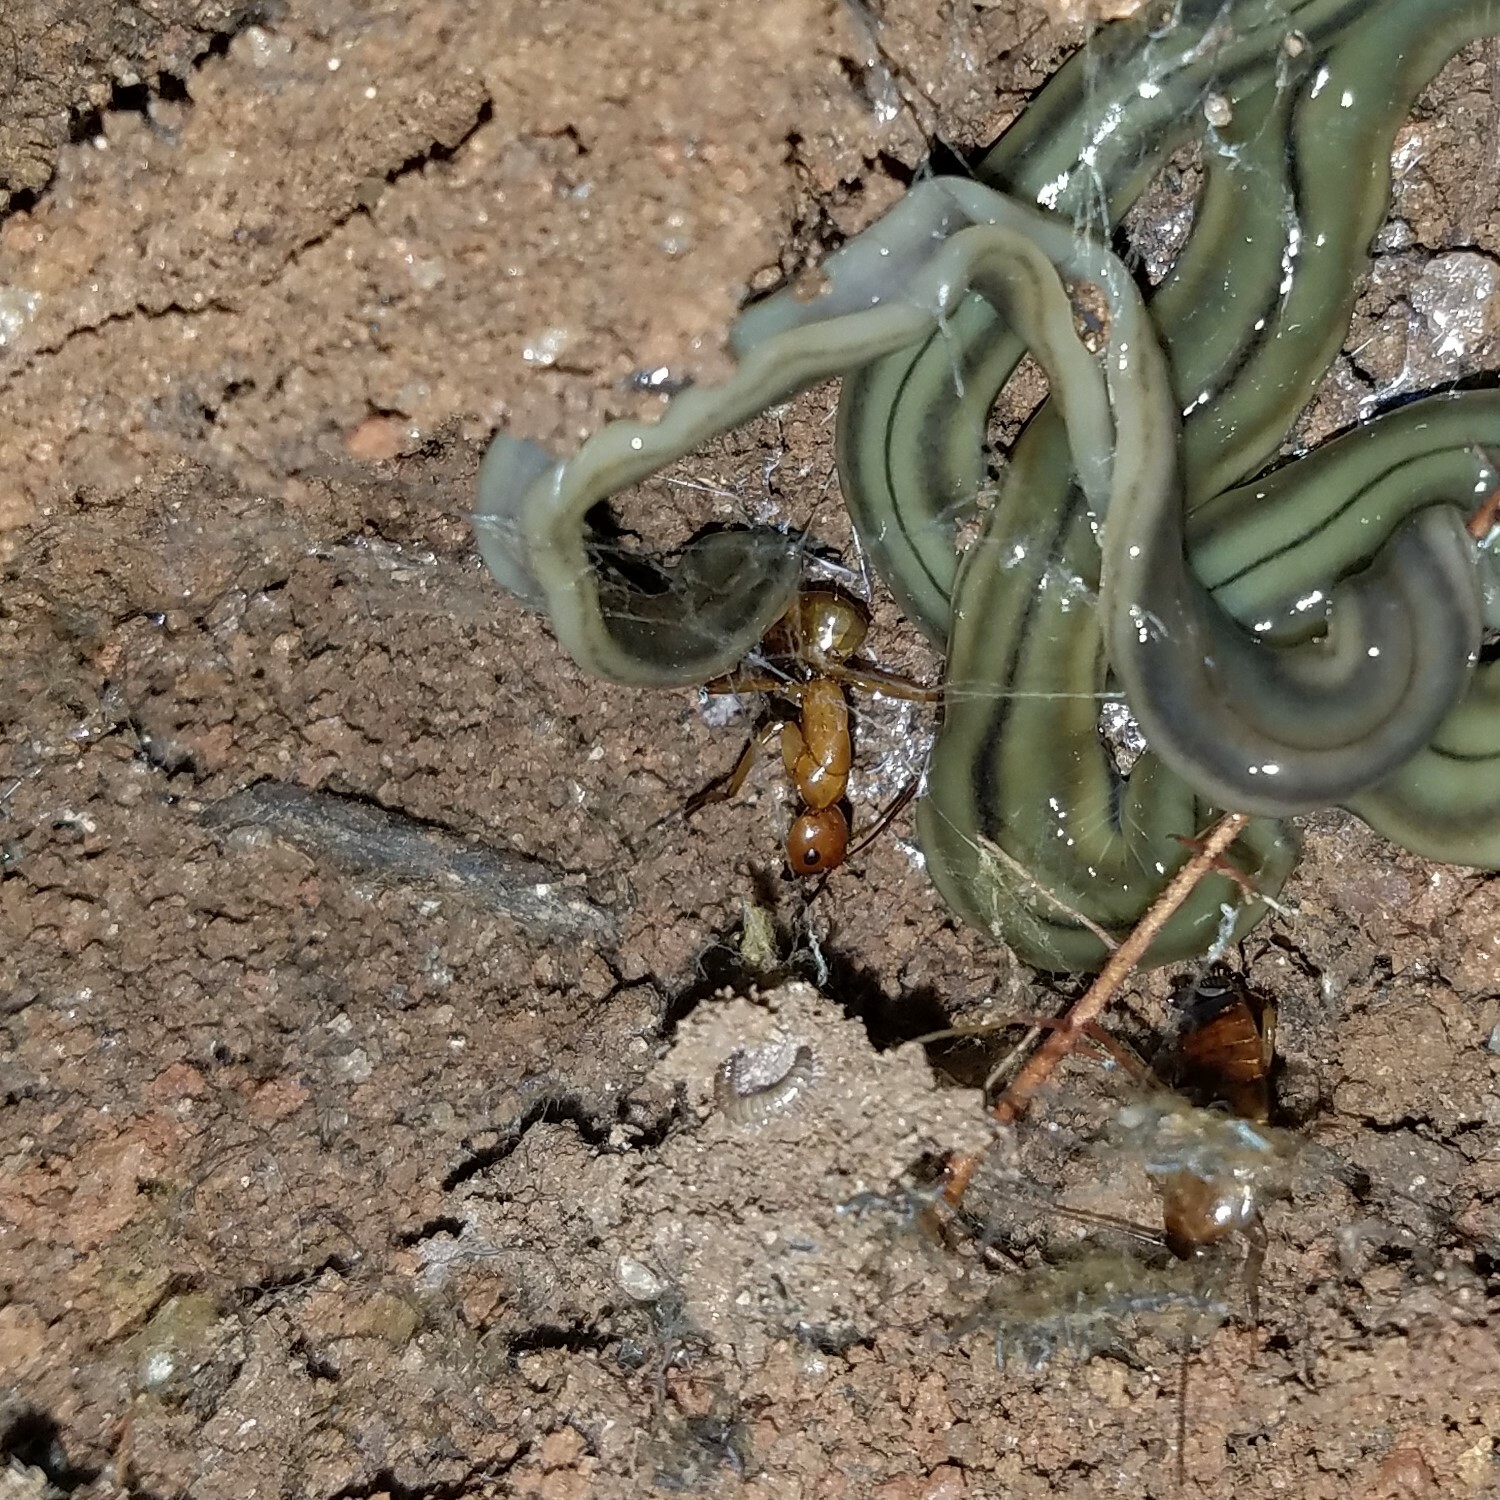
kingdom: Animalia
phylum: Arthropoda
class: Insecta
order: Hymenoptera
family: Formicidae
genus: Camponotus
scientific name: Camponotus castaneus
